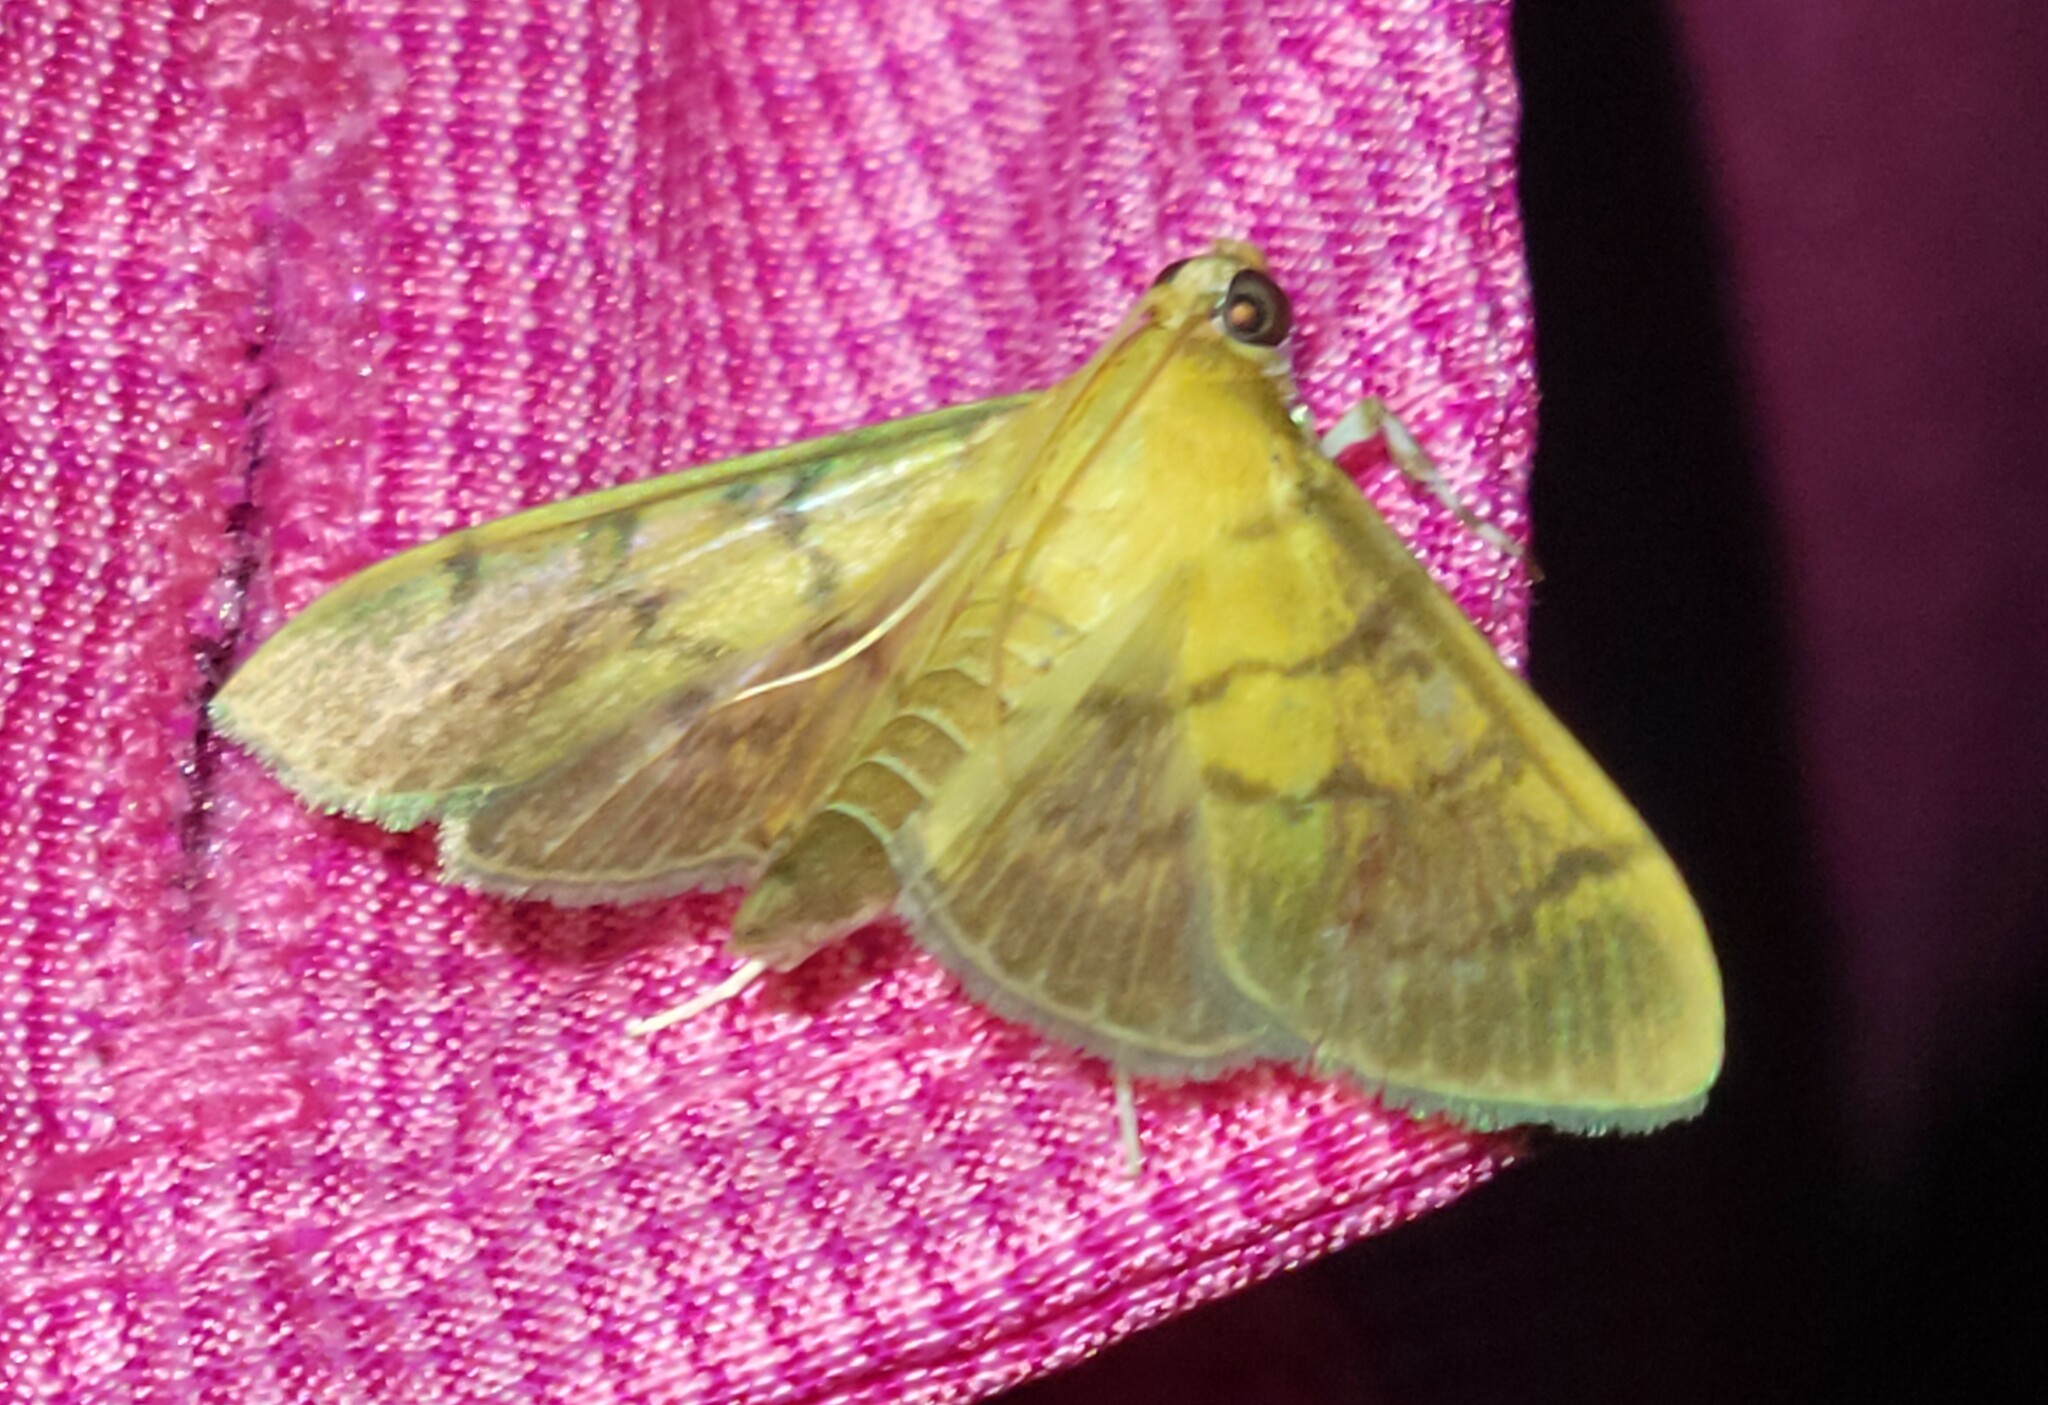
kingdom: Animalia
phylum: Arthropoda
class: Insecta
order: Lepidoptera
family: Crambidae
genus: Syllepte
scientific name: Syllepte obscuralis
